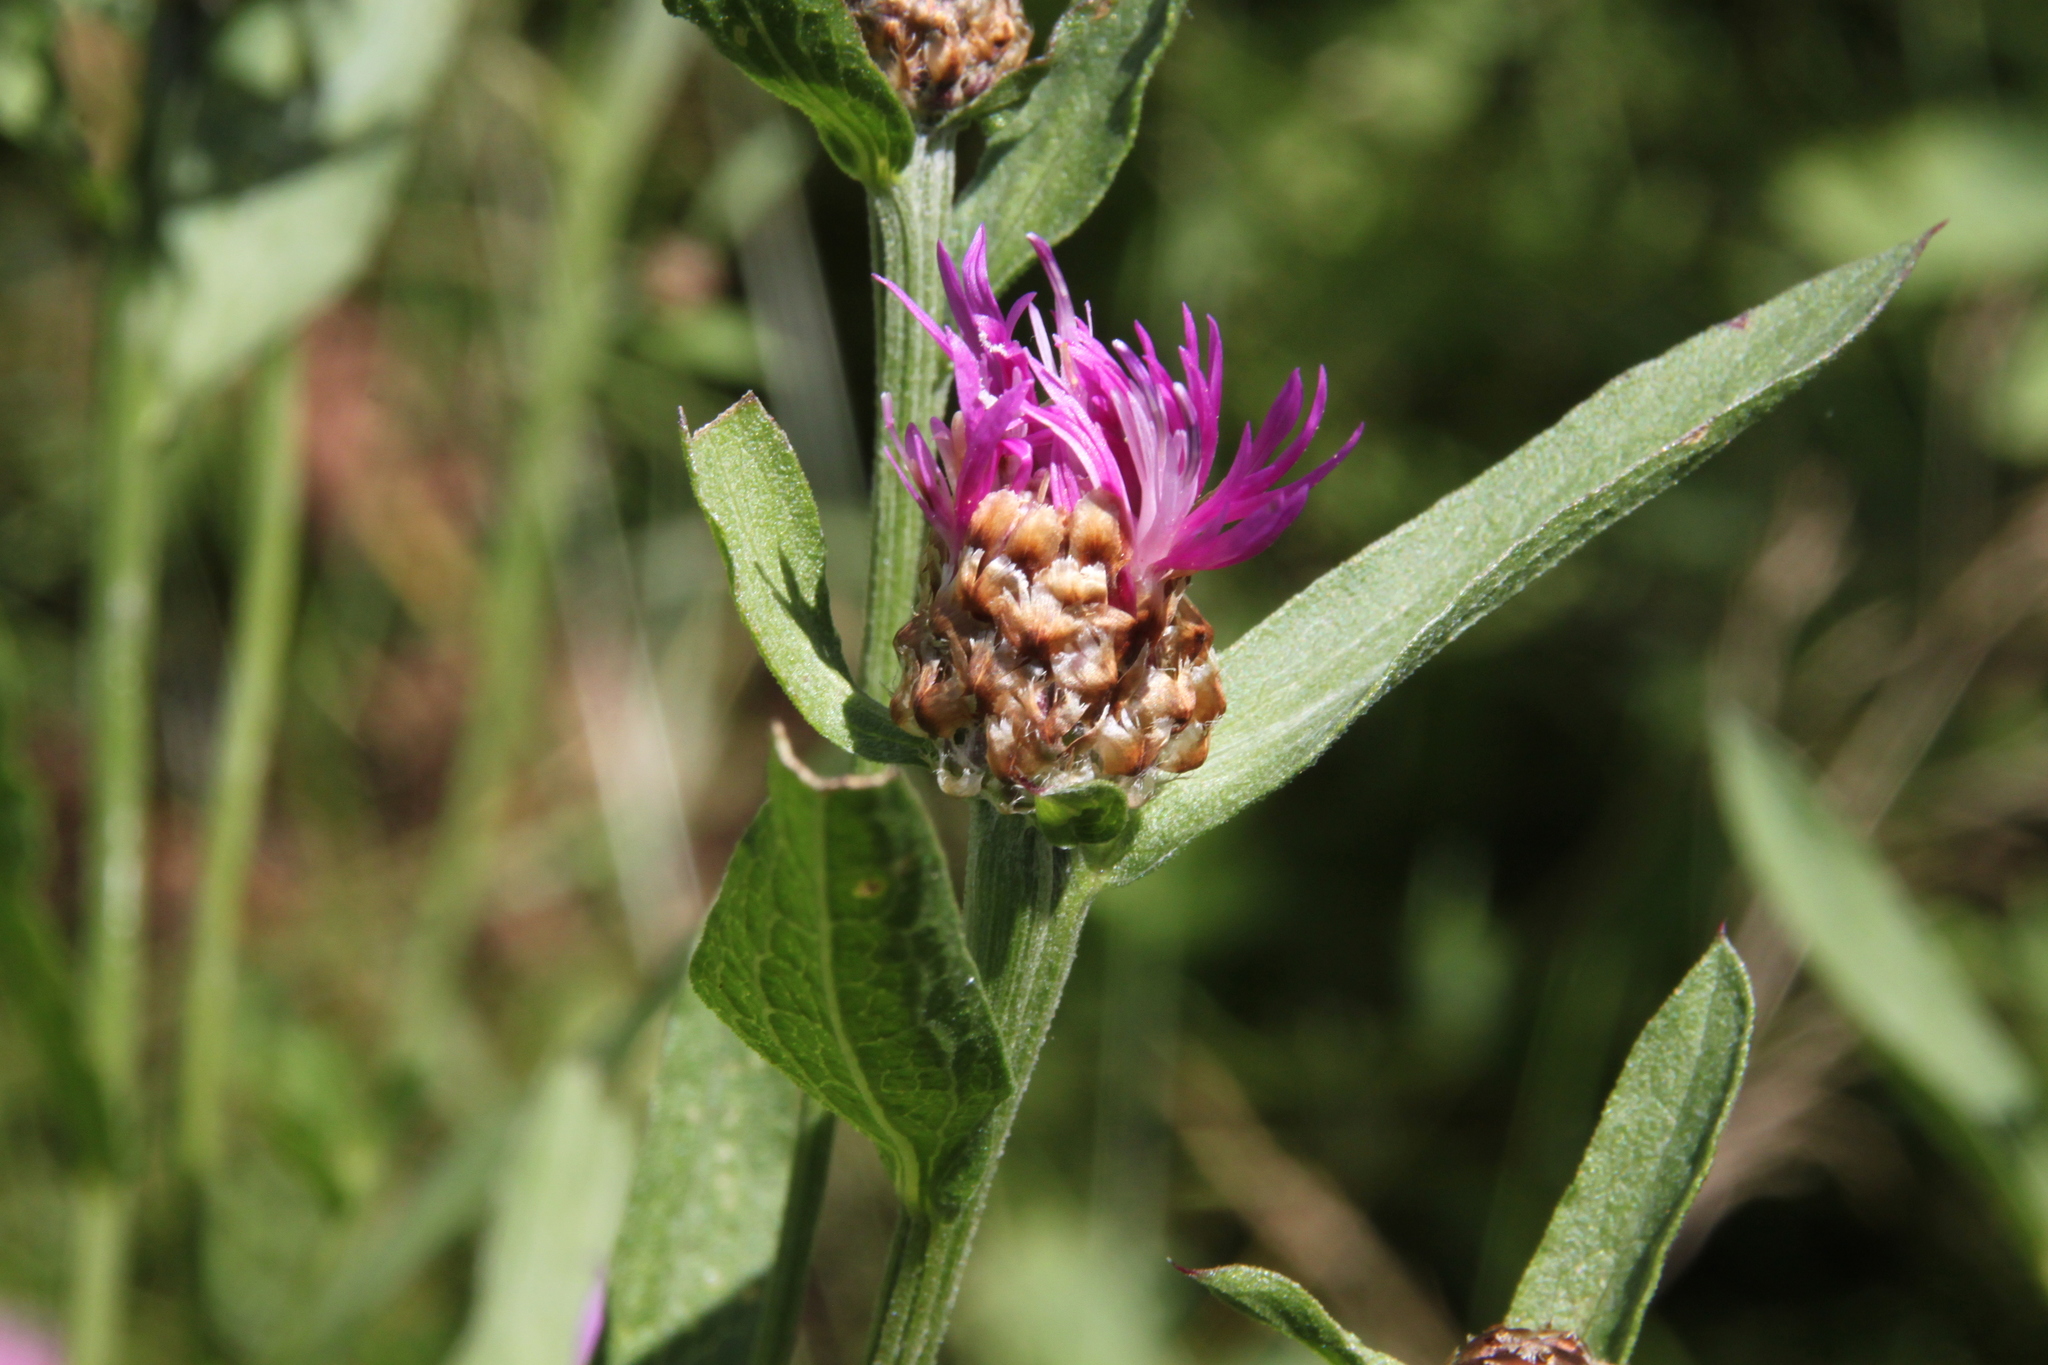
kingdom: Plantae
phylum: Tracheophyta
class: Magnoliopsida
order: Asterales
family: Asteraceae
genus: Centaurea
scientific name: Centaurea jacea
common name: Brown knapweed
